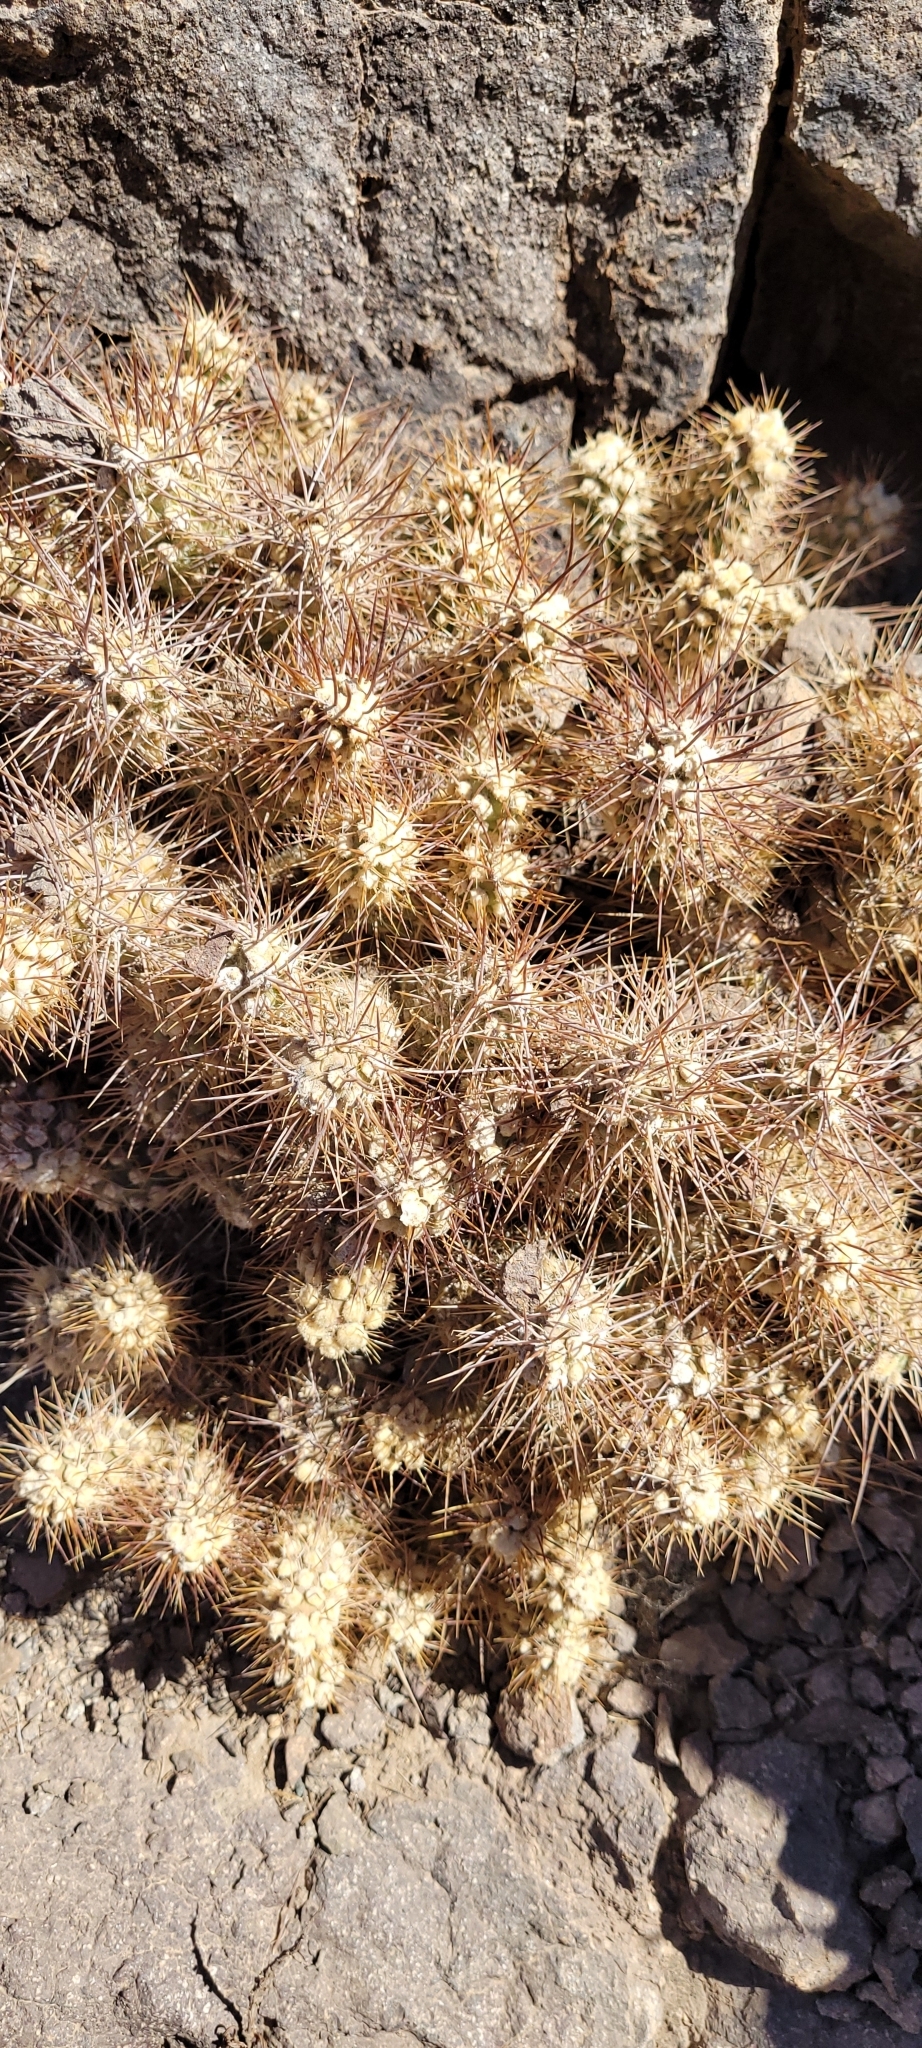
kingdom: Plantae
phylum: Tracheophyta
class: Magnoliopsida
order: Caryophyllales
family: Cactaceae
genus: Cumulopuntia
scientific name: Cumulopuntia leucophaea
